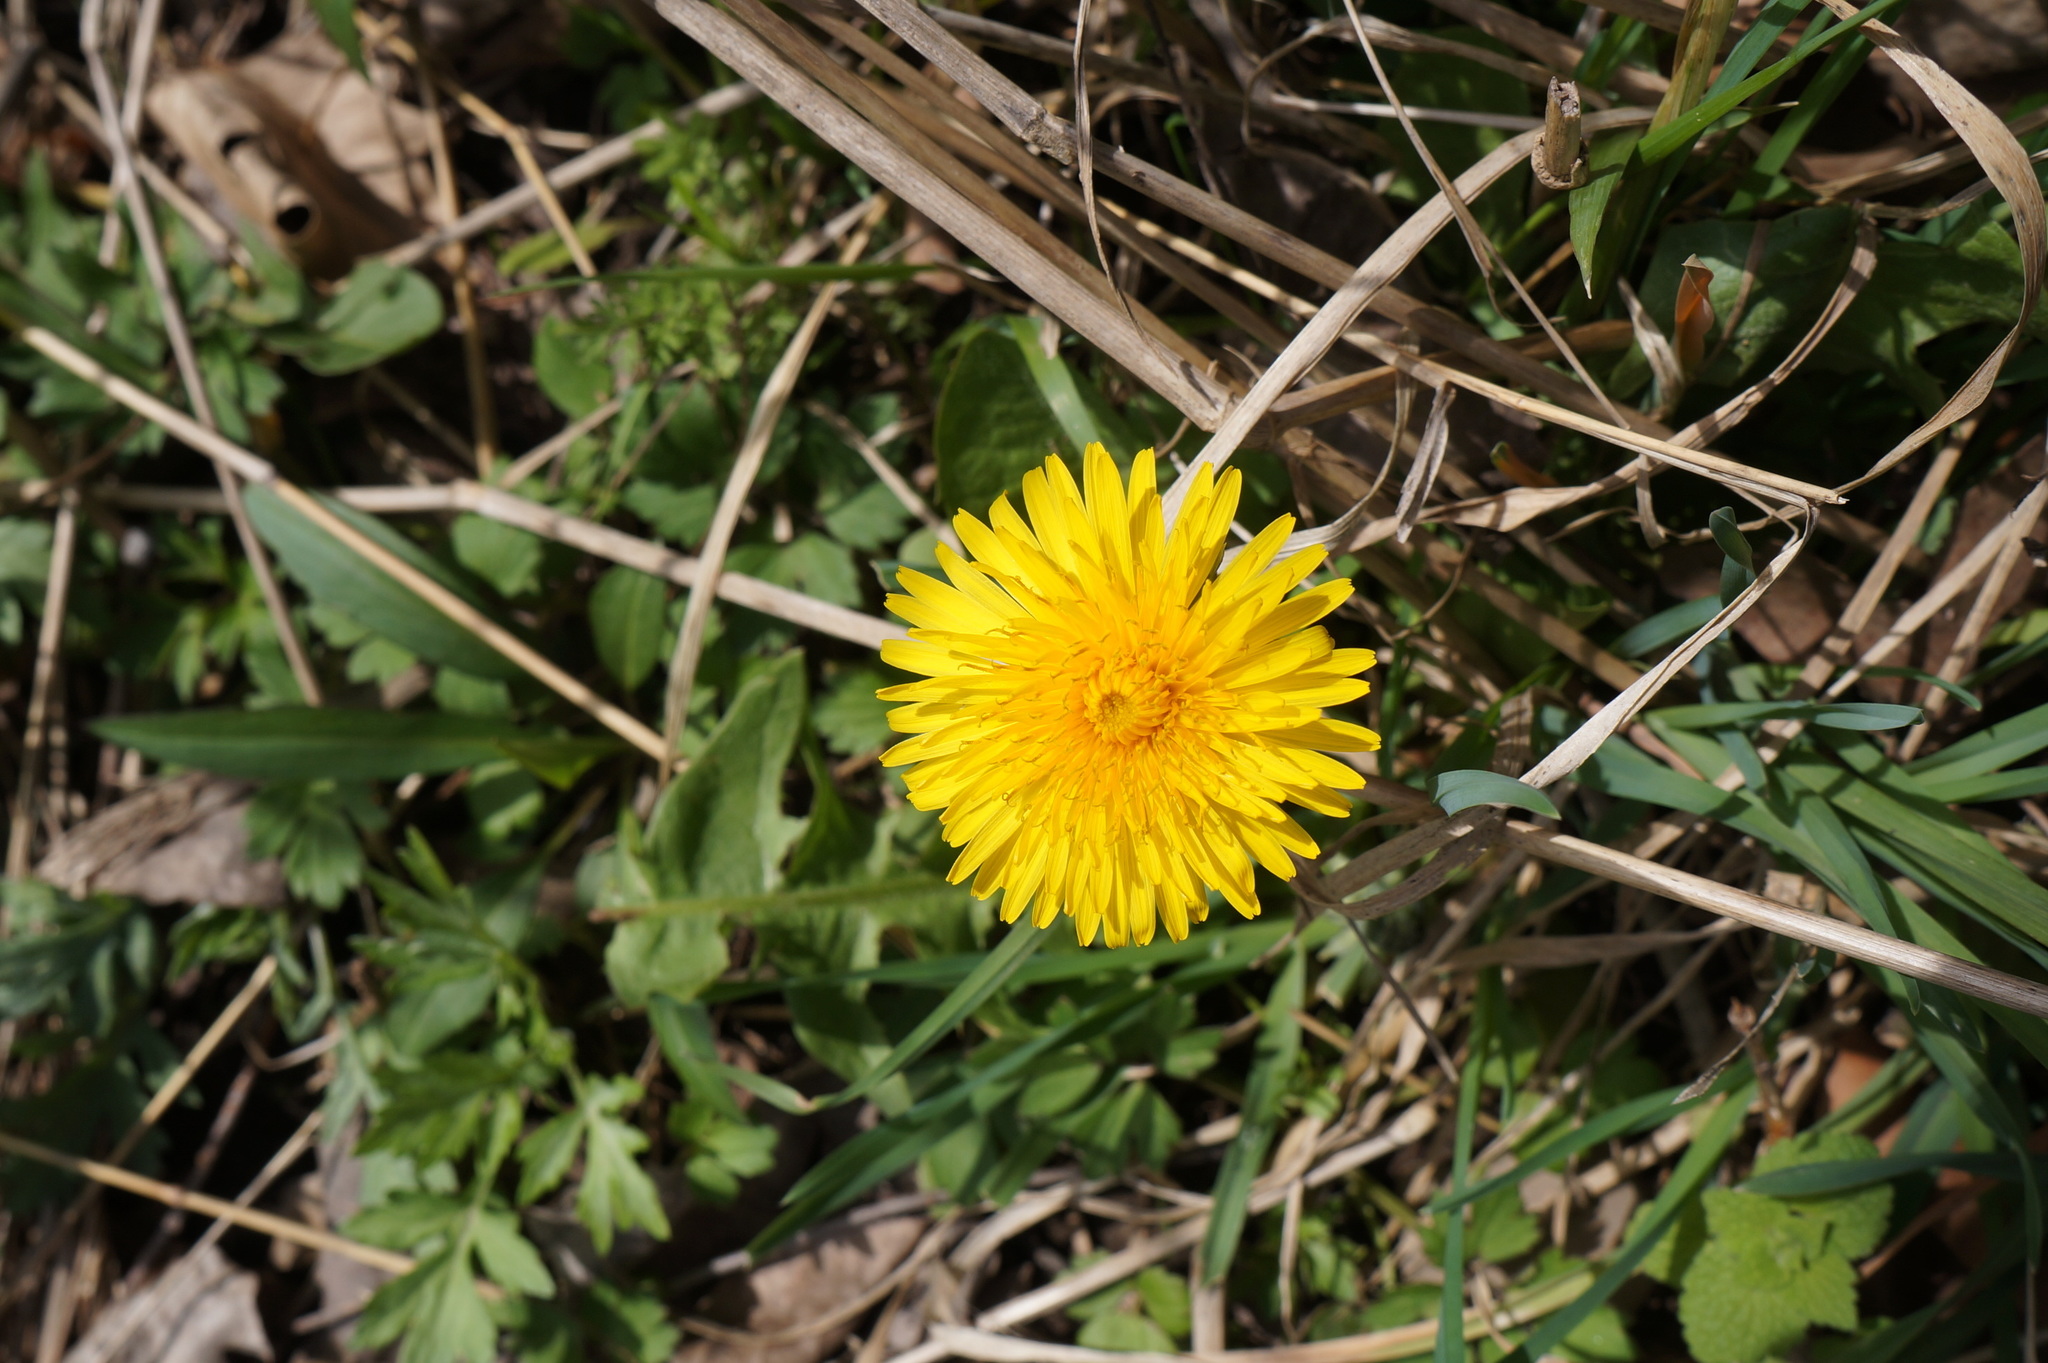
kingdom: Plantae
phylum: Tracheophyta
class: Magnoliopsida
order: Asterales
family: Asteraceae
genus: Taraxacum
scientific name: Taraxacum officinale
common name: Common dandelion
